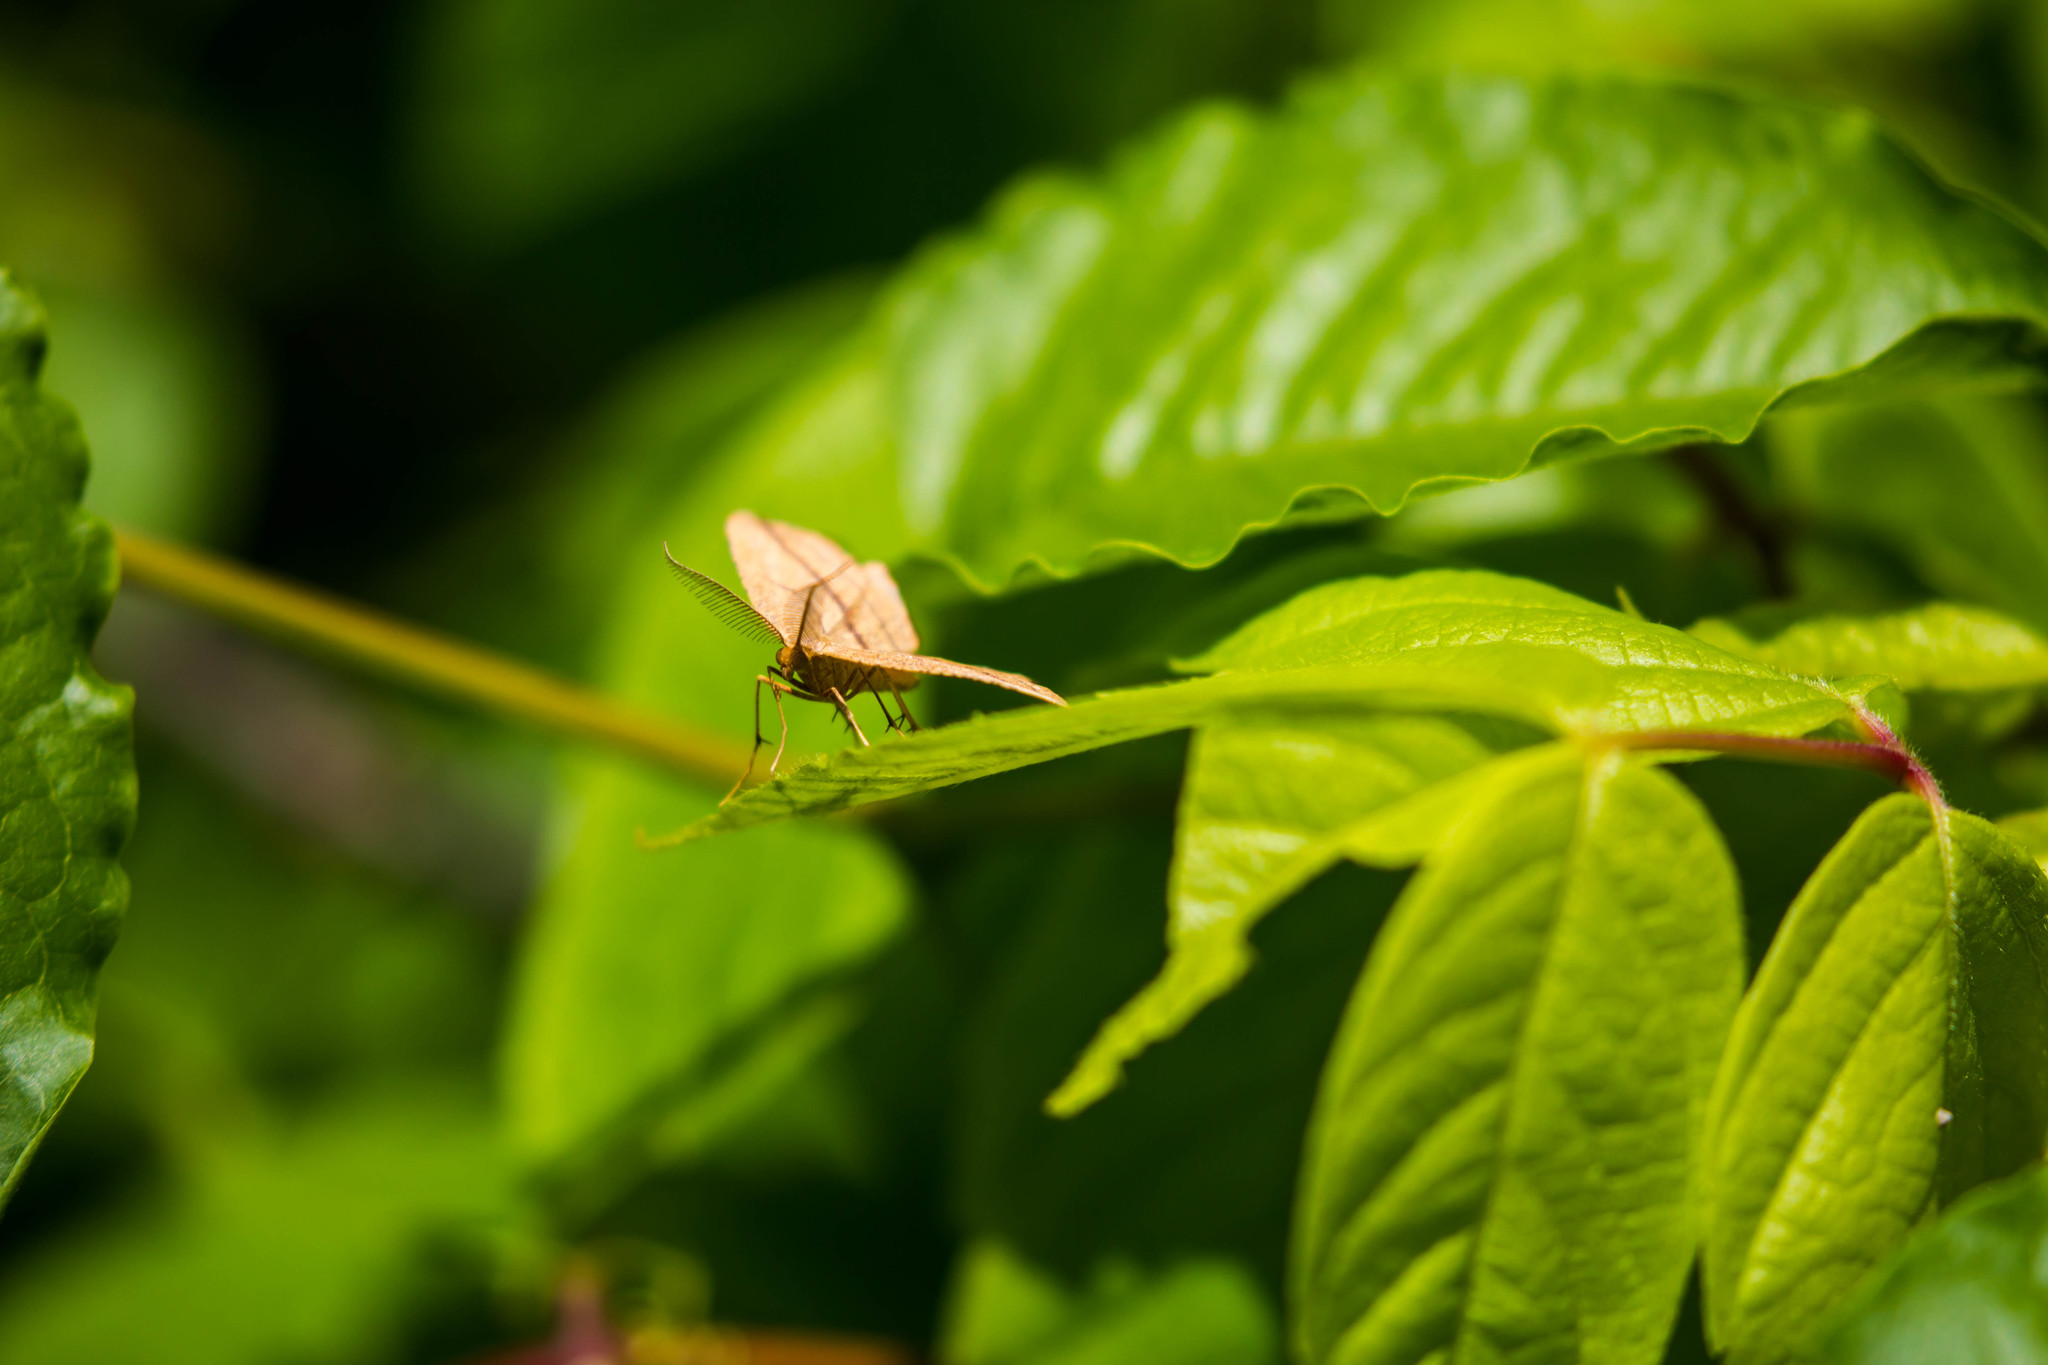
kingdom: Animalia
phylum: Arthropoda
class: Insecta
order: Lepidoptera
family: Geometridae
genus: Timandra
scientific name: Timandra amaturaria
